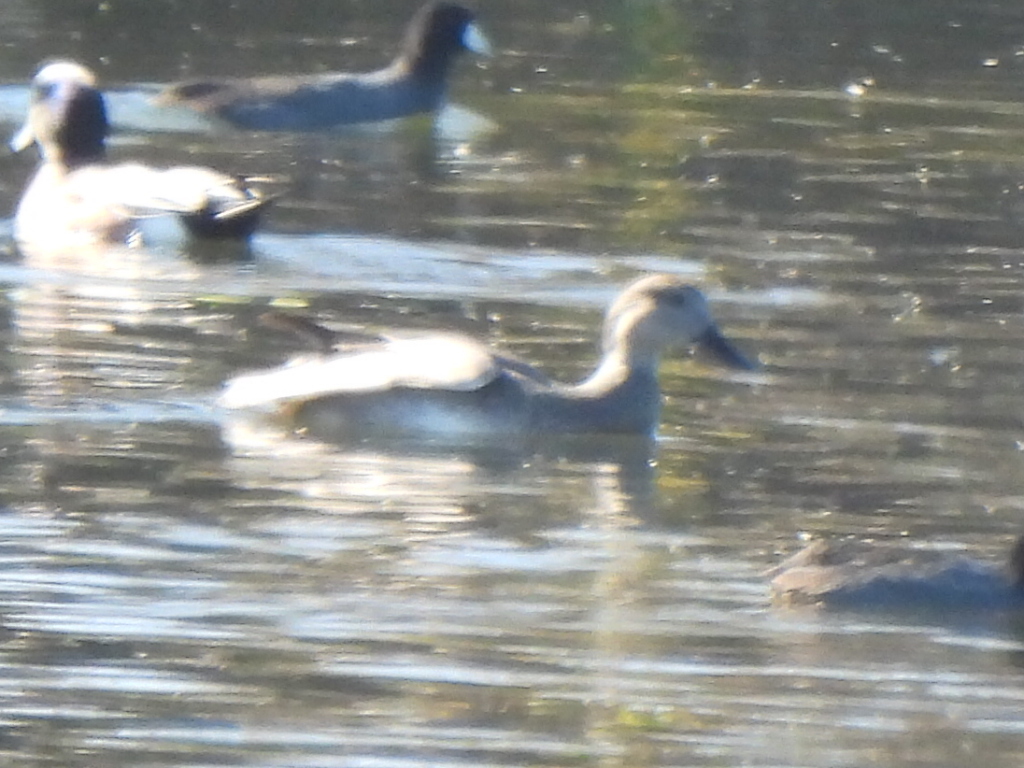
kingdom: Animalia
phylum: Chordata
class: Aves
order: Anseriformes
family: Anatidae
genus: Mareca
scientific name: Mareca strepera
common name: Gadwall
